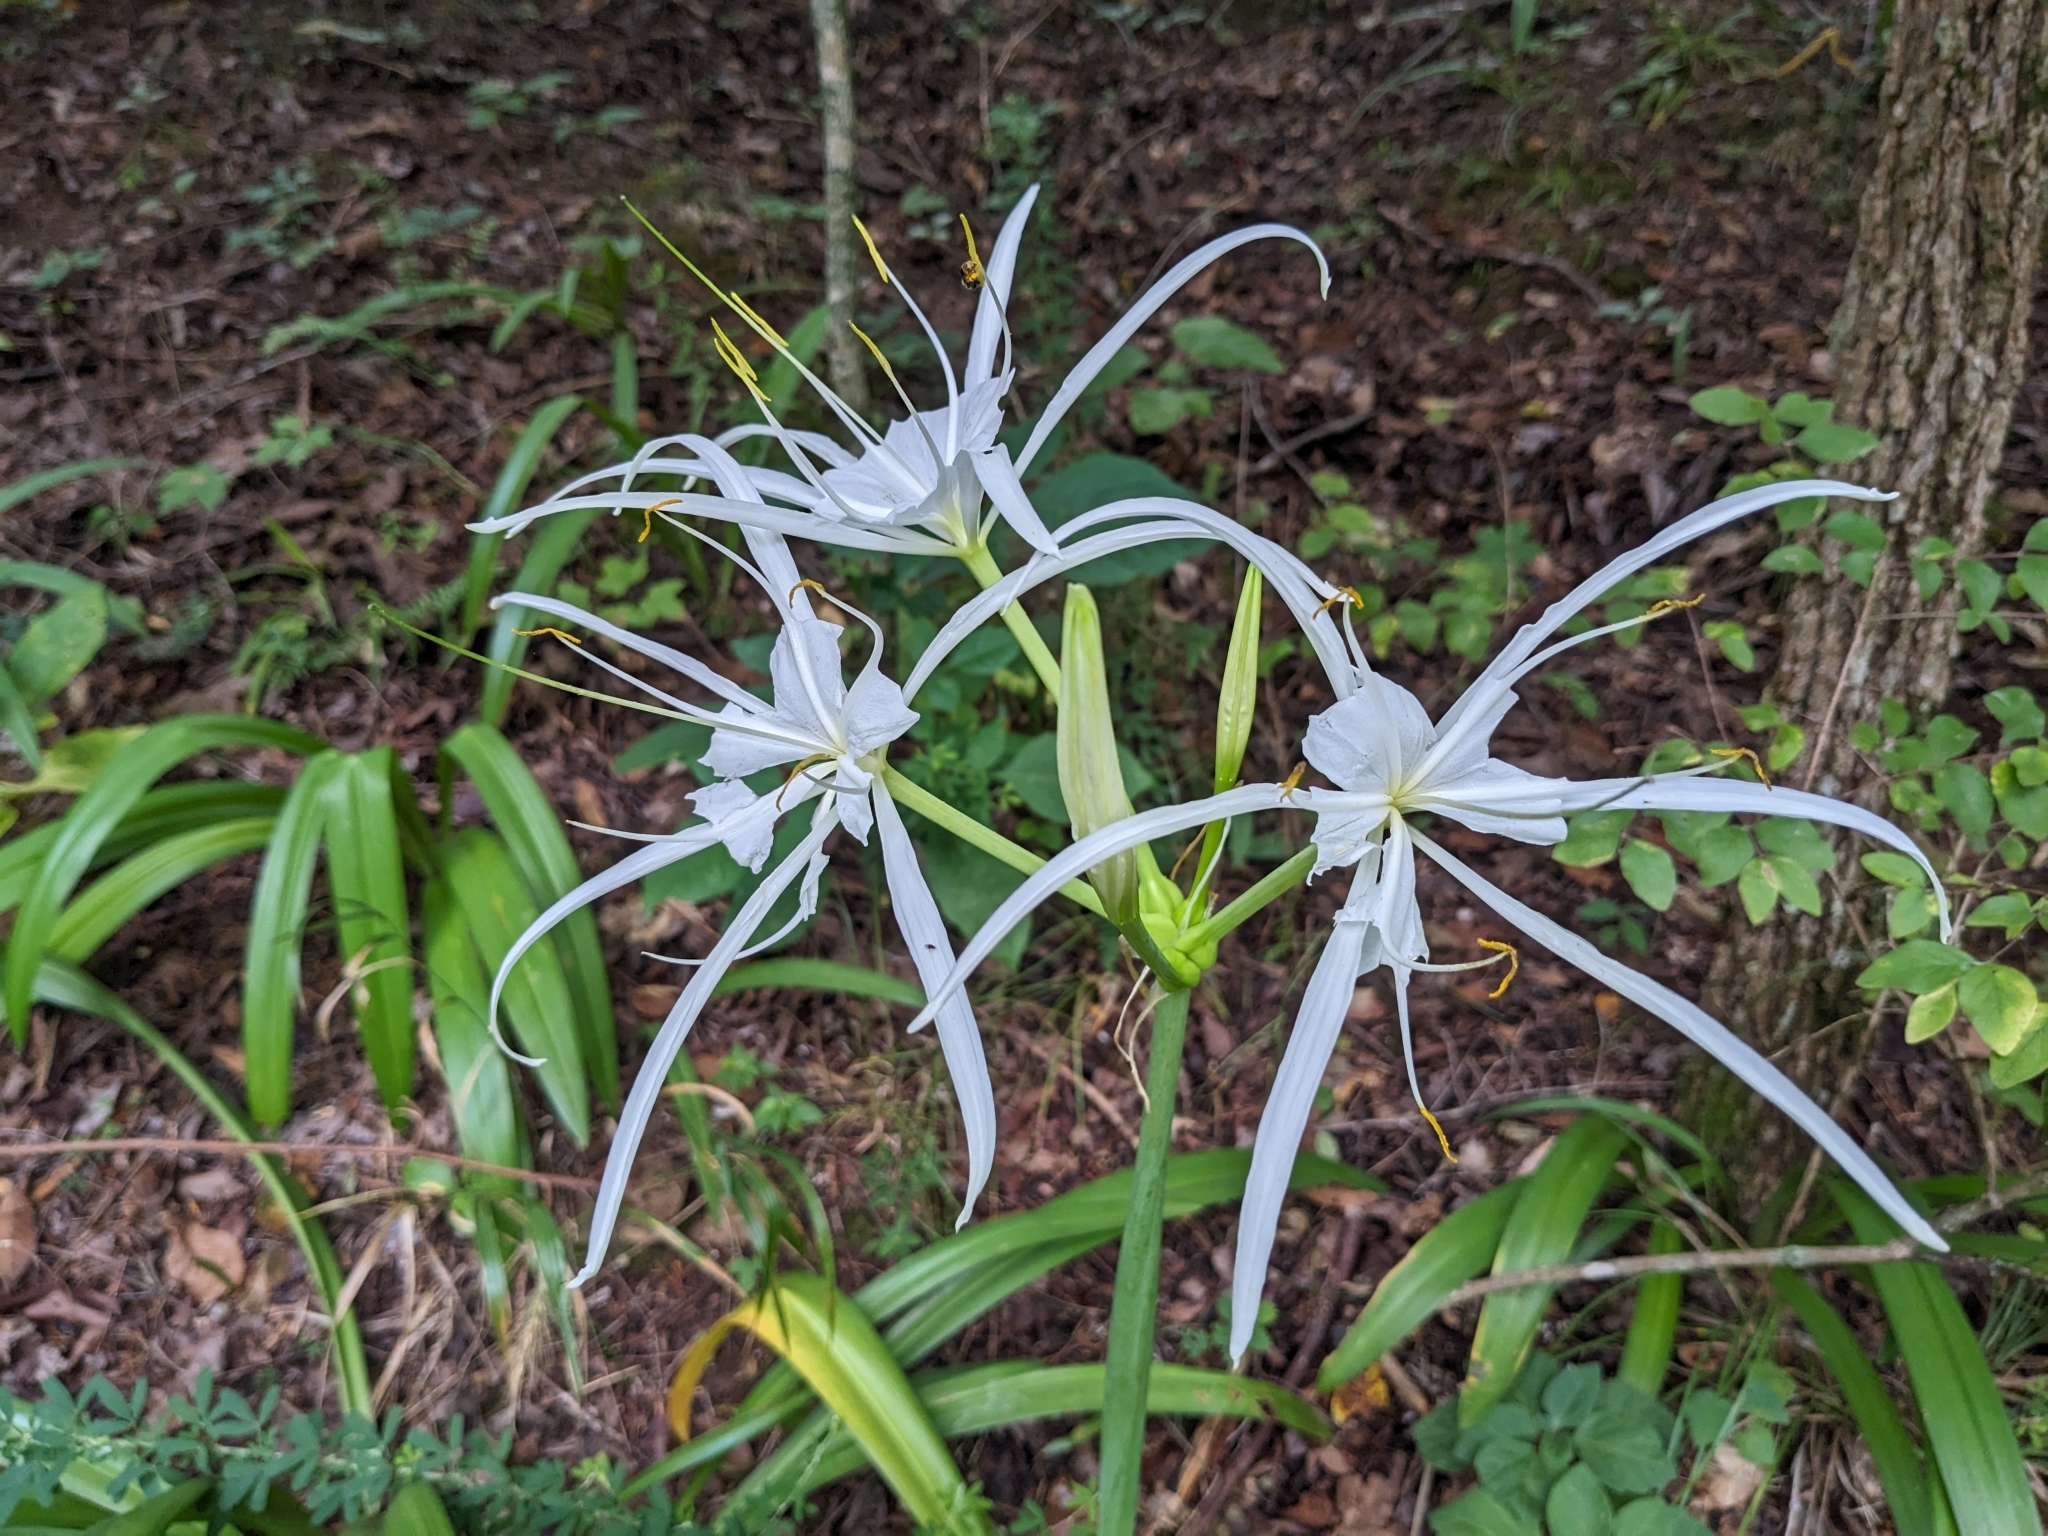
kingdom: Plantae
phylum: Tracheophyta
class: Liliopsida
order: Asparagales
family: Amaryllidaceae
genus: Hymenocallis
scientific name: Hymenocallis occidentalis
